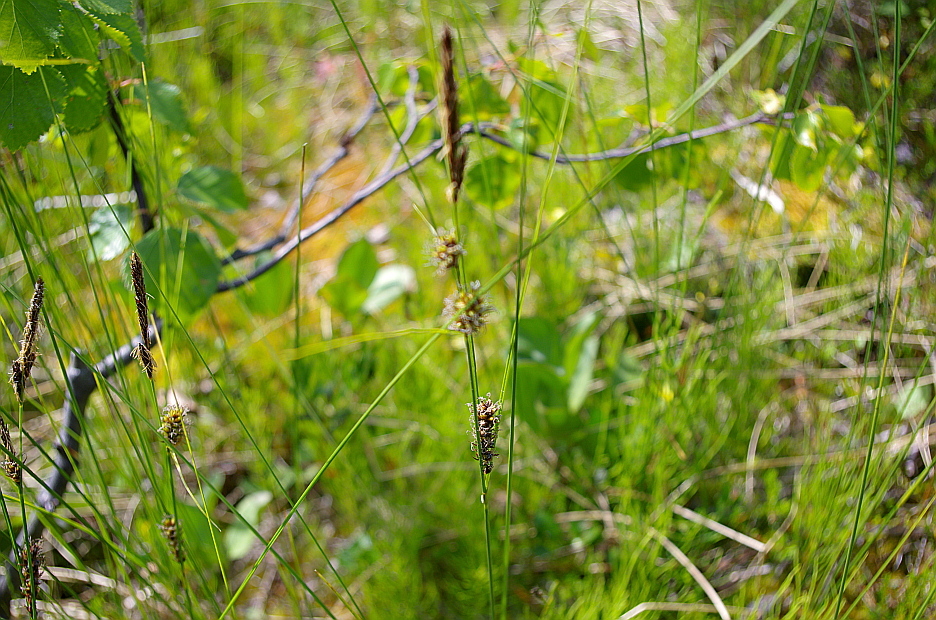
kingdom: Plantae
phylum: Tracheophyta
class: Liliopsida
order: Poales
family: Cyperaceae
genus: Carex
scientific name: Carex lasiocarpa
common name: Slender sedge
